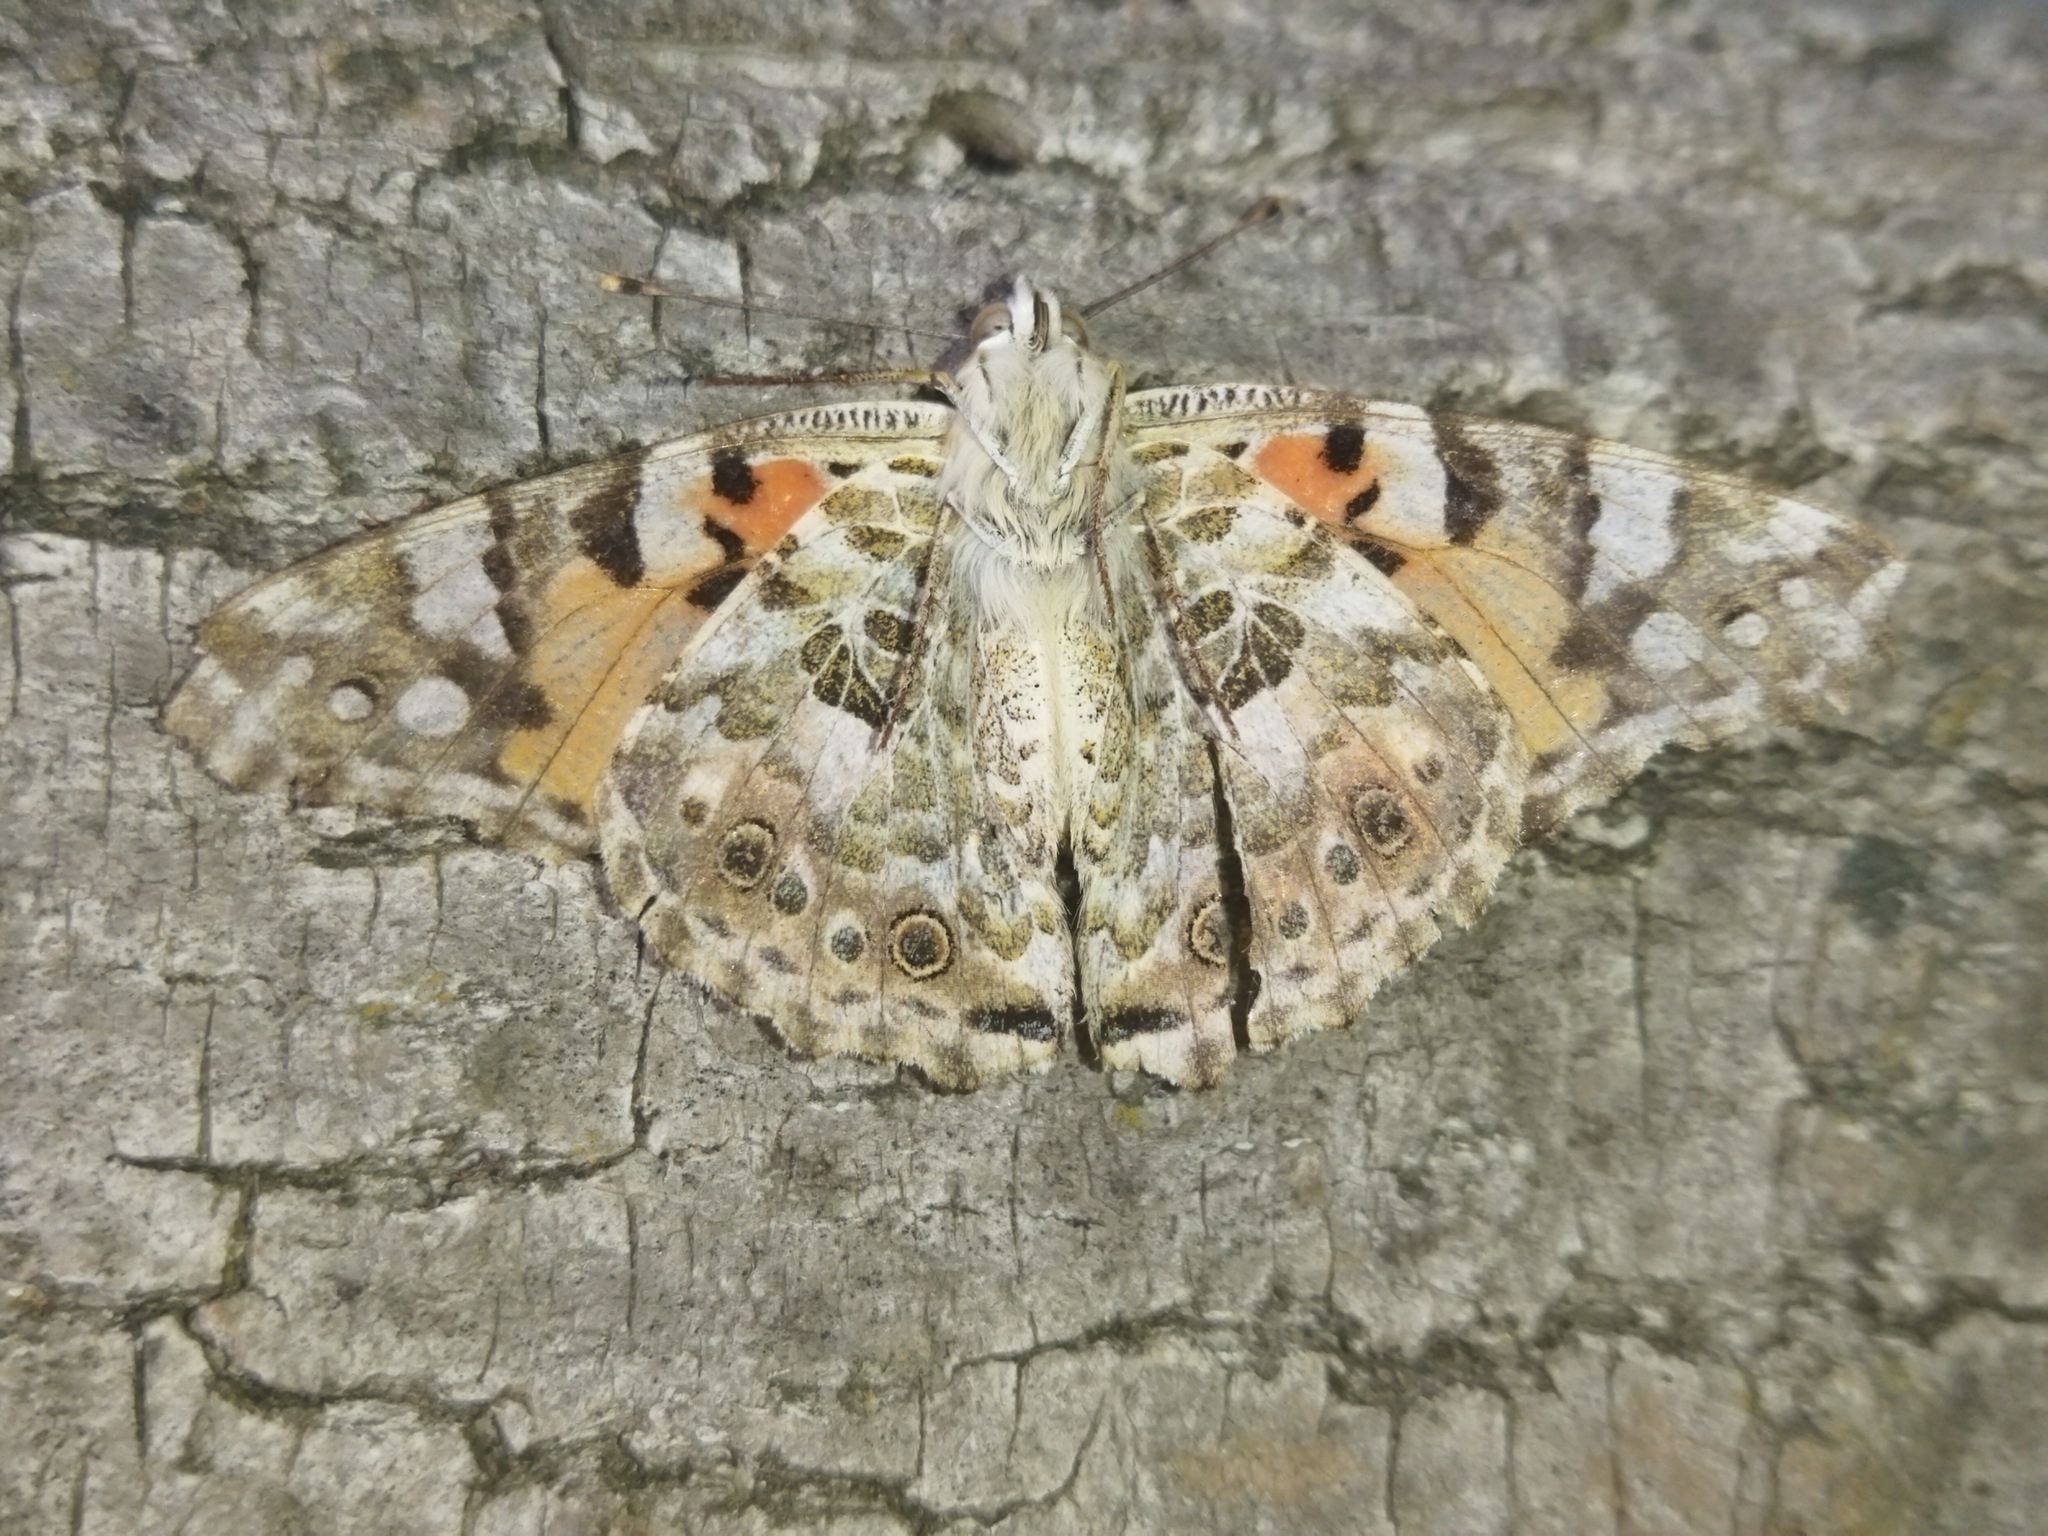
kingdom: Animalia
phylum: Arthropoda
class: Insecta
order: Lepidoptera
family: Nymphalidae
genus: Vanessa
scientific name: Vanessa cardui
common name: Painted lady
